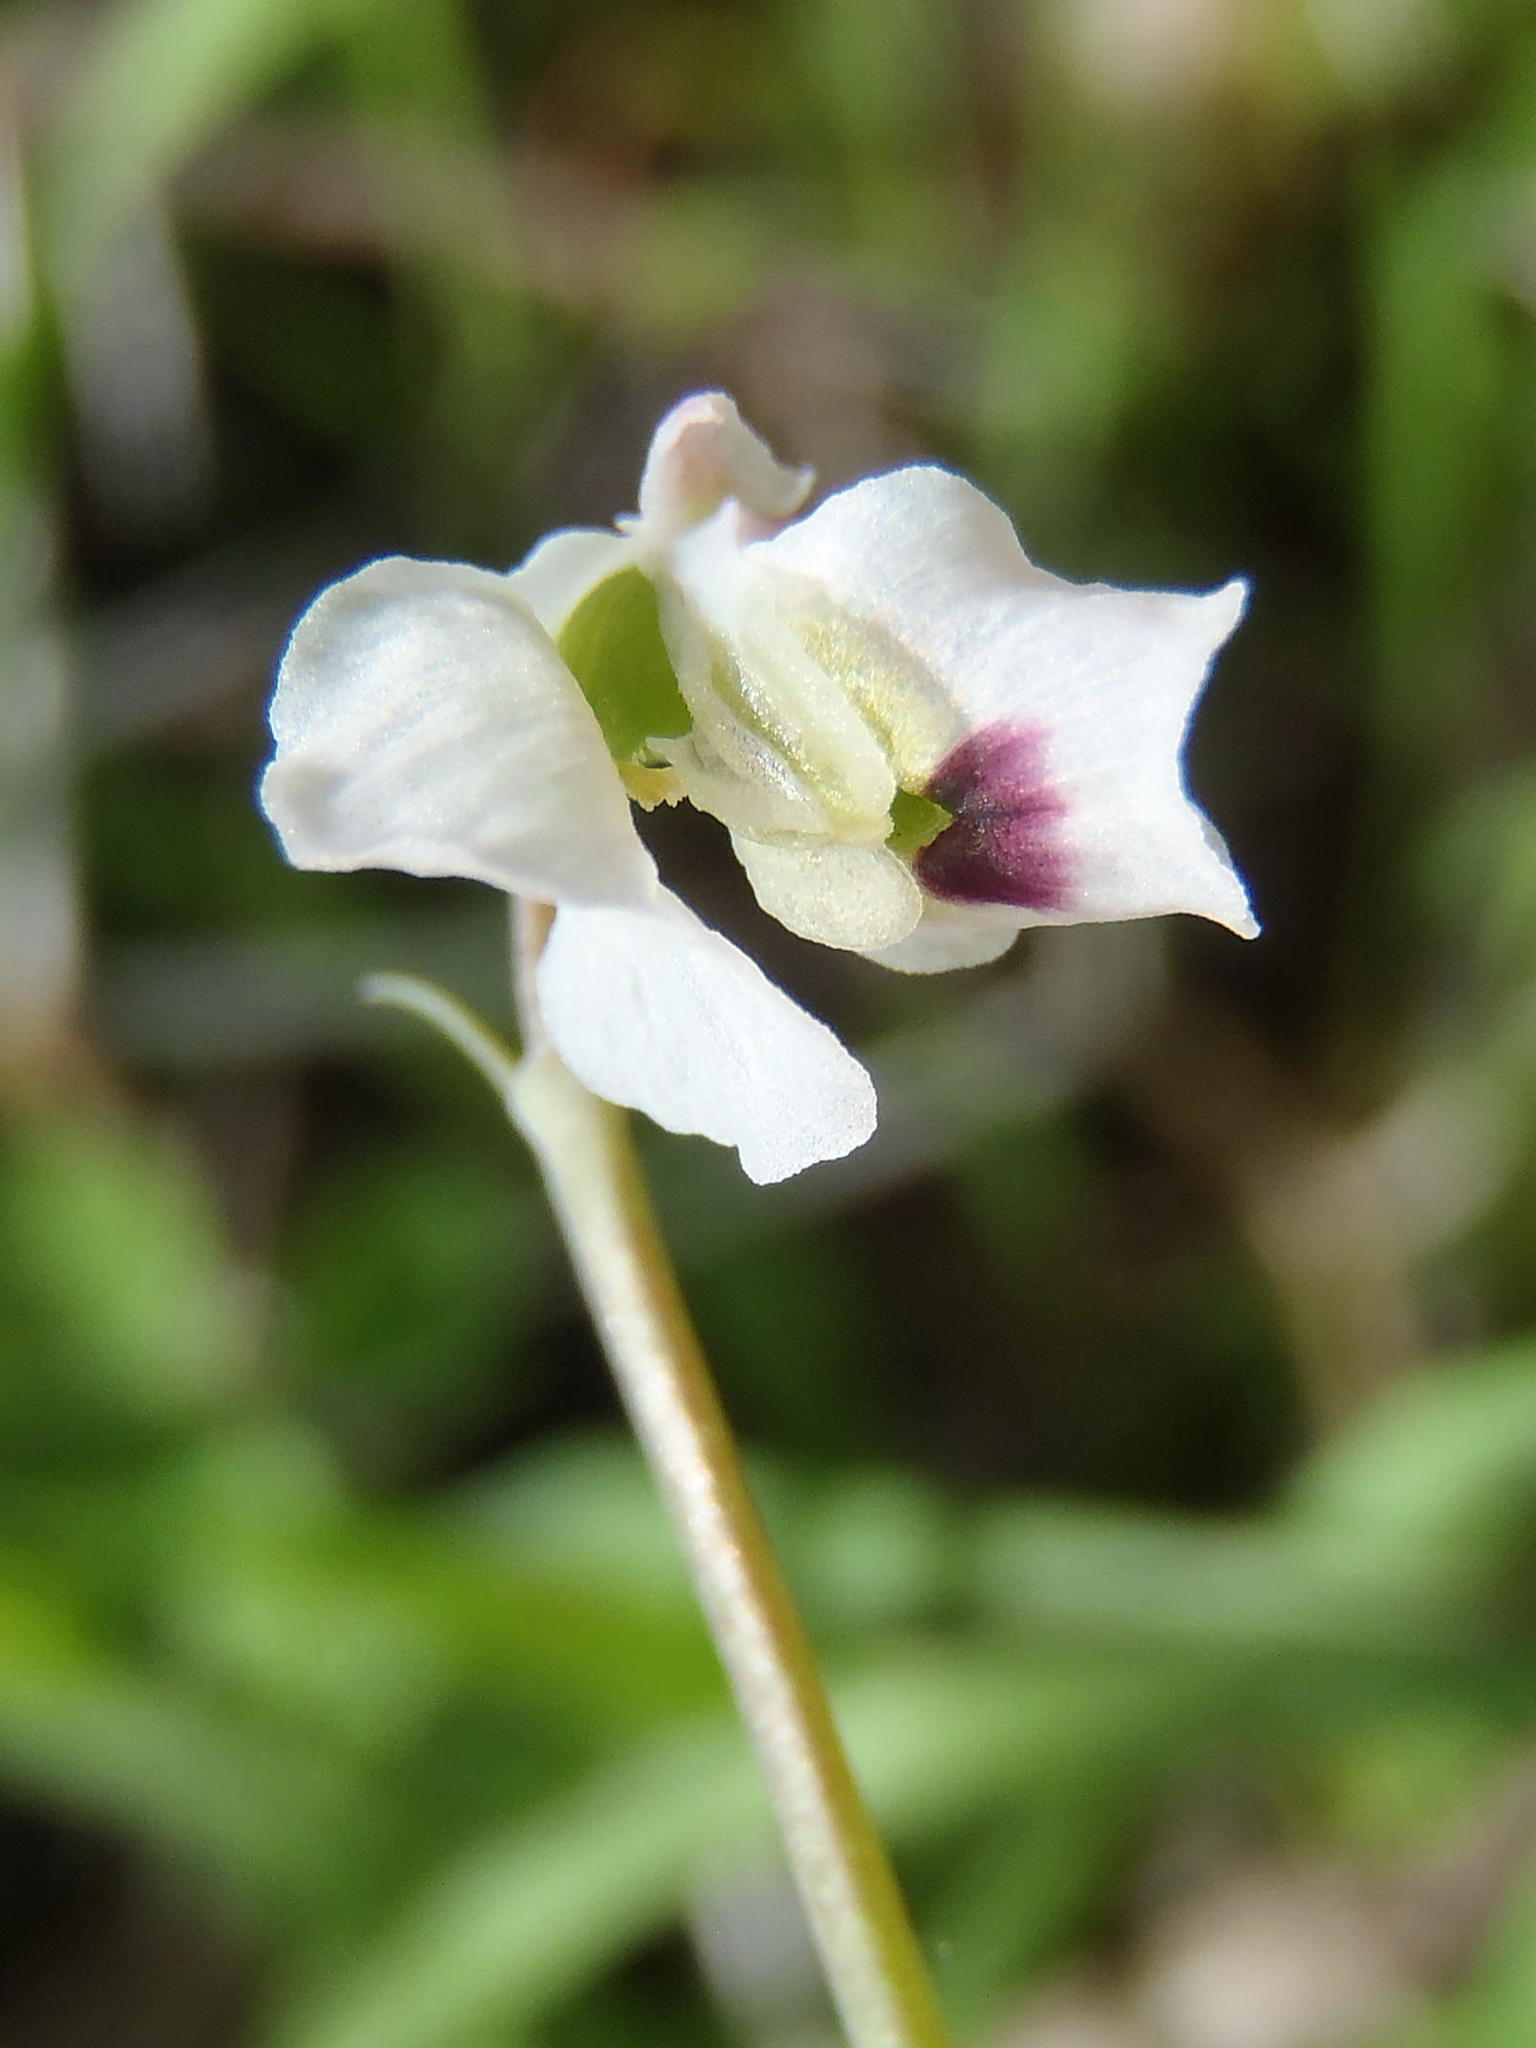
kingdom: Plantae
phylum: Tracheophyta
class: Magnoliopsida
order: Ranunculales
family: Papaveraceae
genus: Cysticapnos
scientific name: Cysticapnos vesicaria
